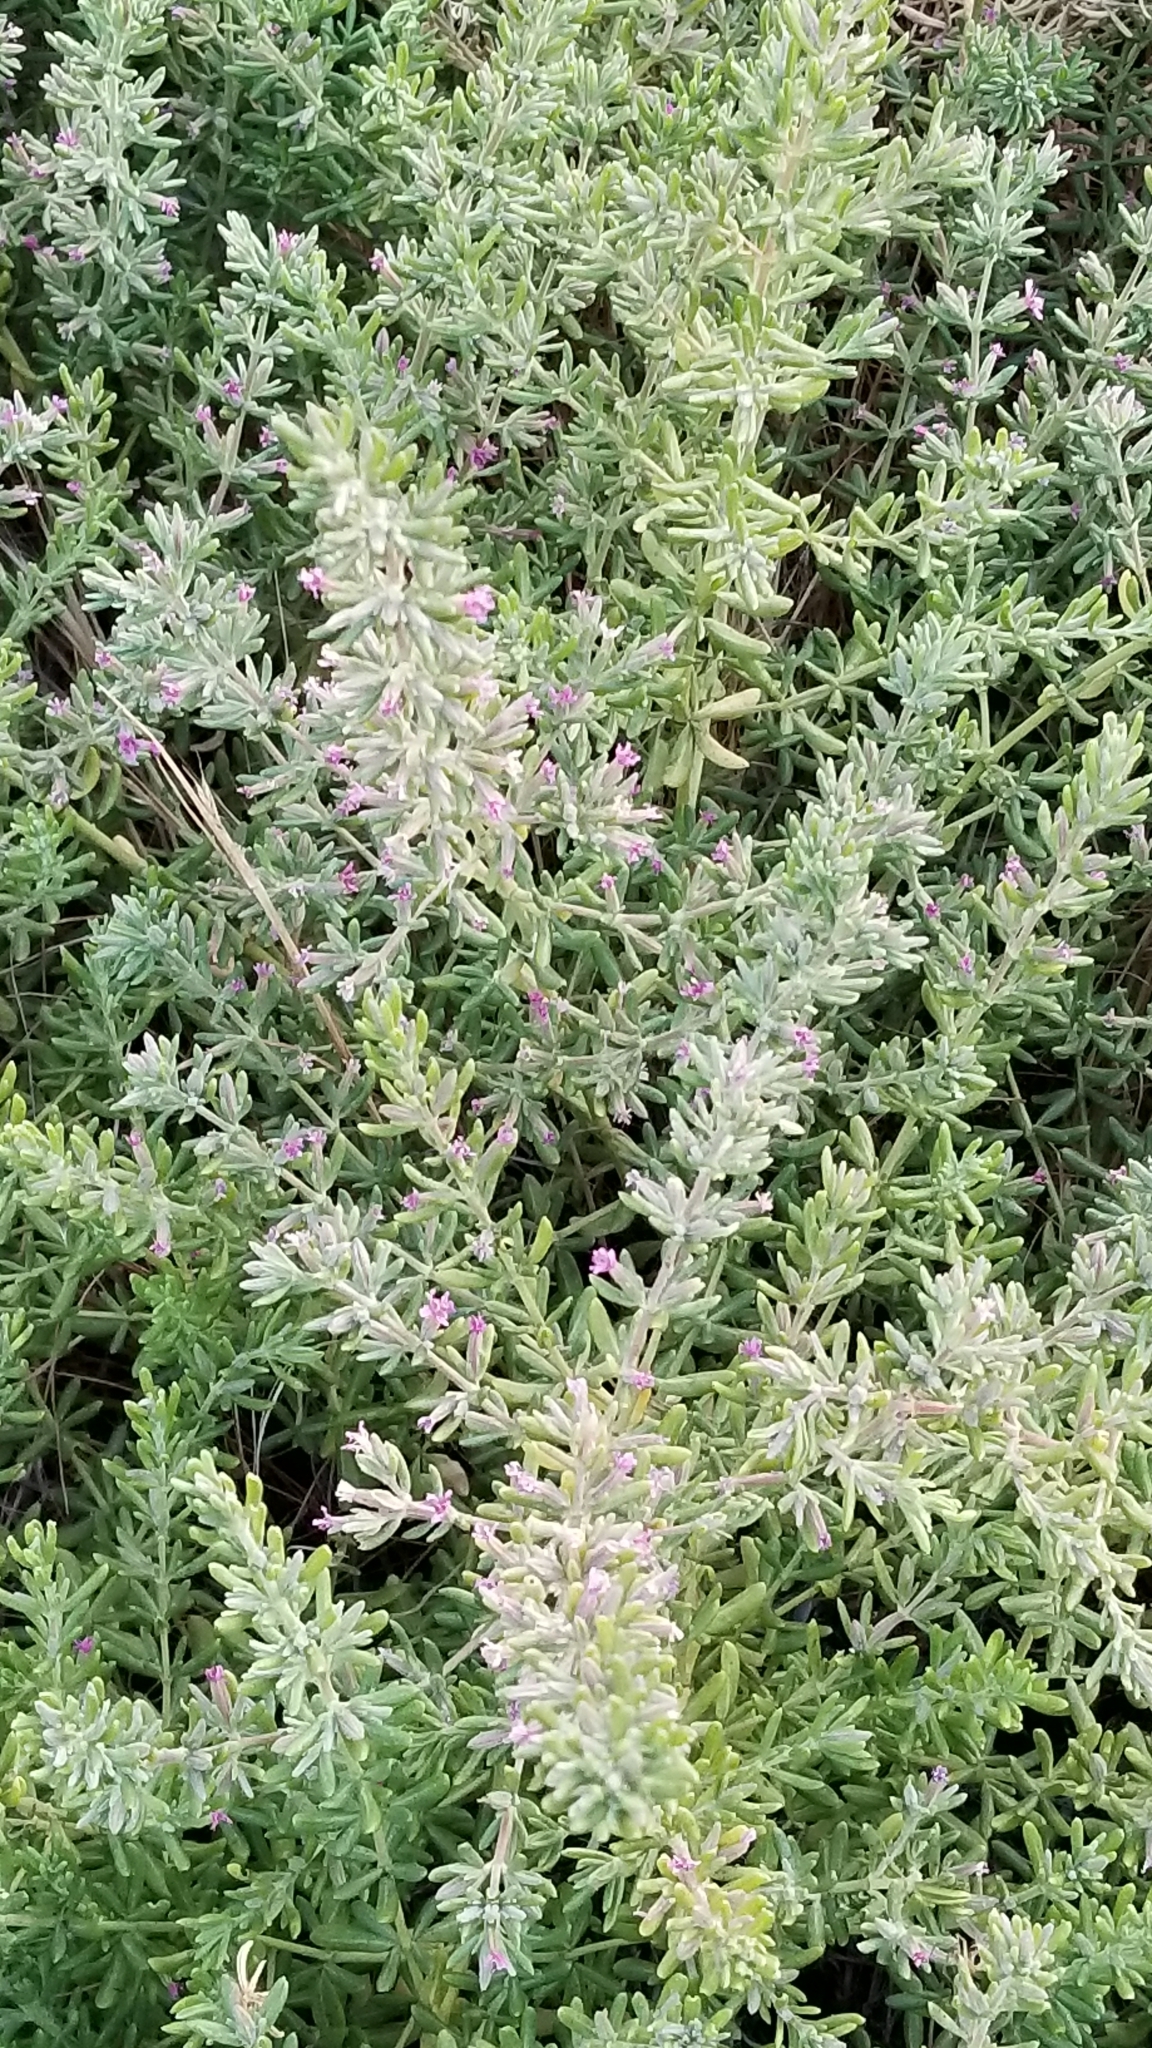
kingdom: Plantae
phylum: Tracheophyta
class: Magnoliopsida
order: Caryophyllales
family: Frankeniaceae
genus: Frankenia
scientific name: Frankenia salina
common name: Alkali seaheath
